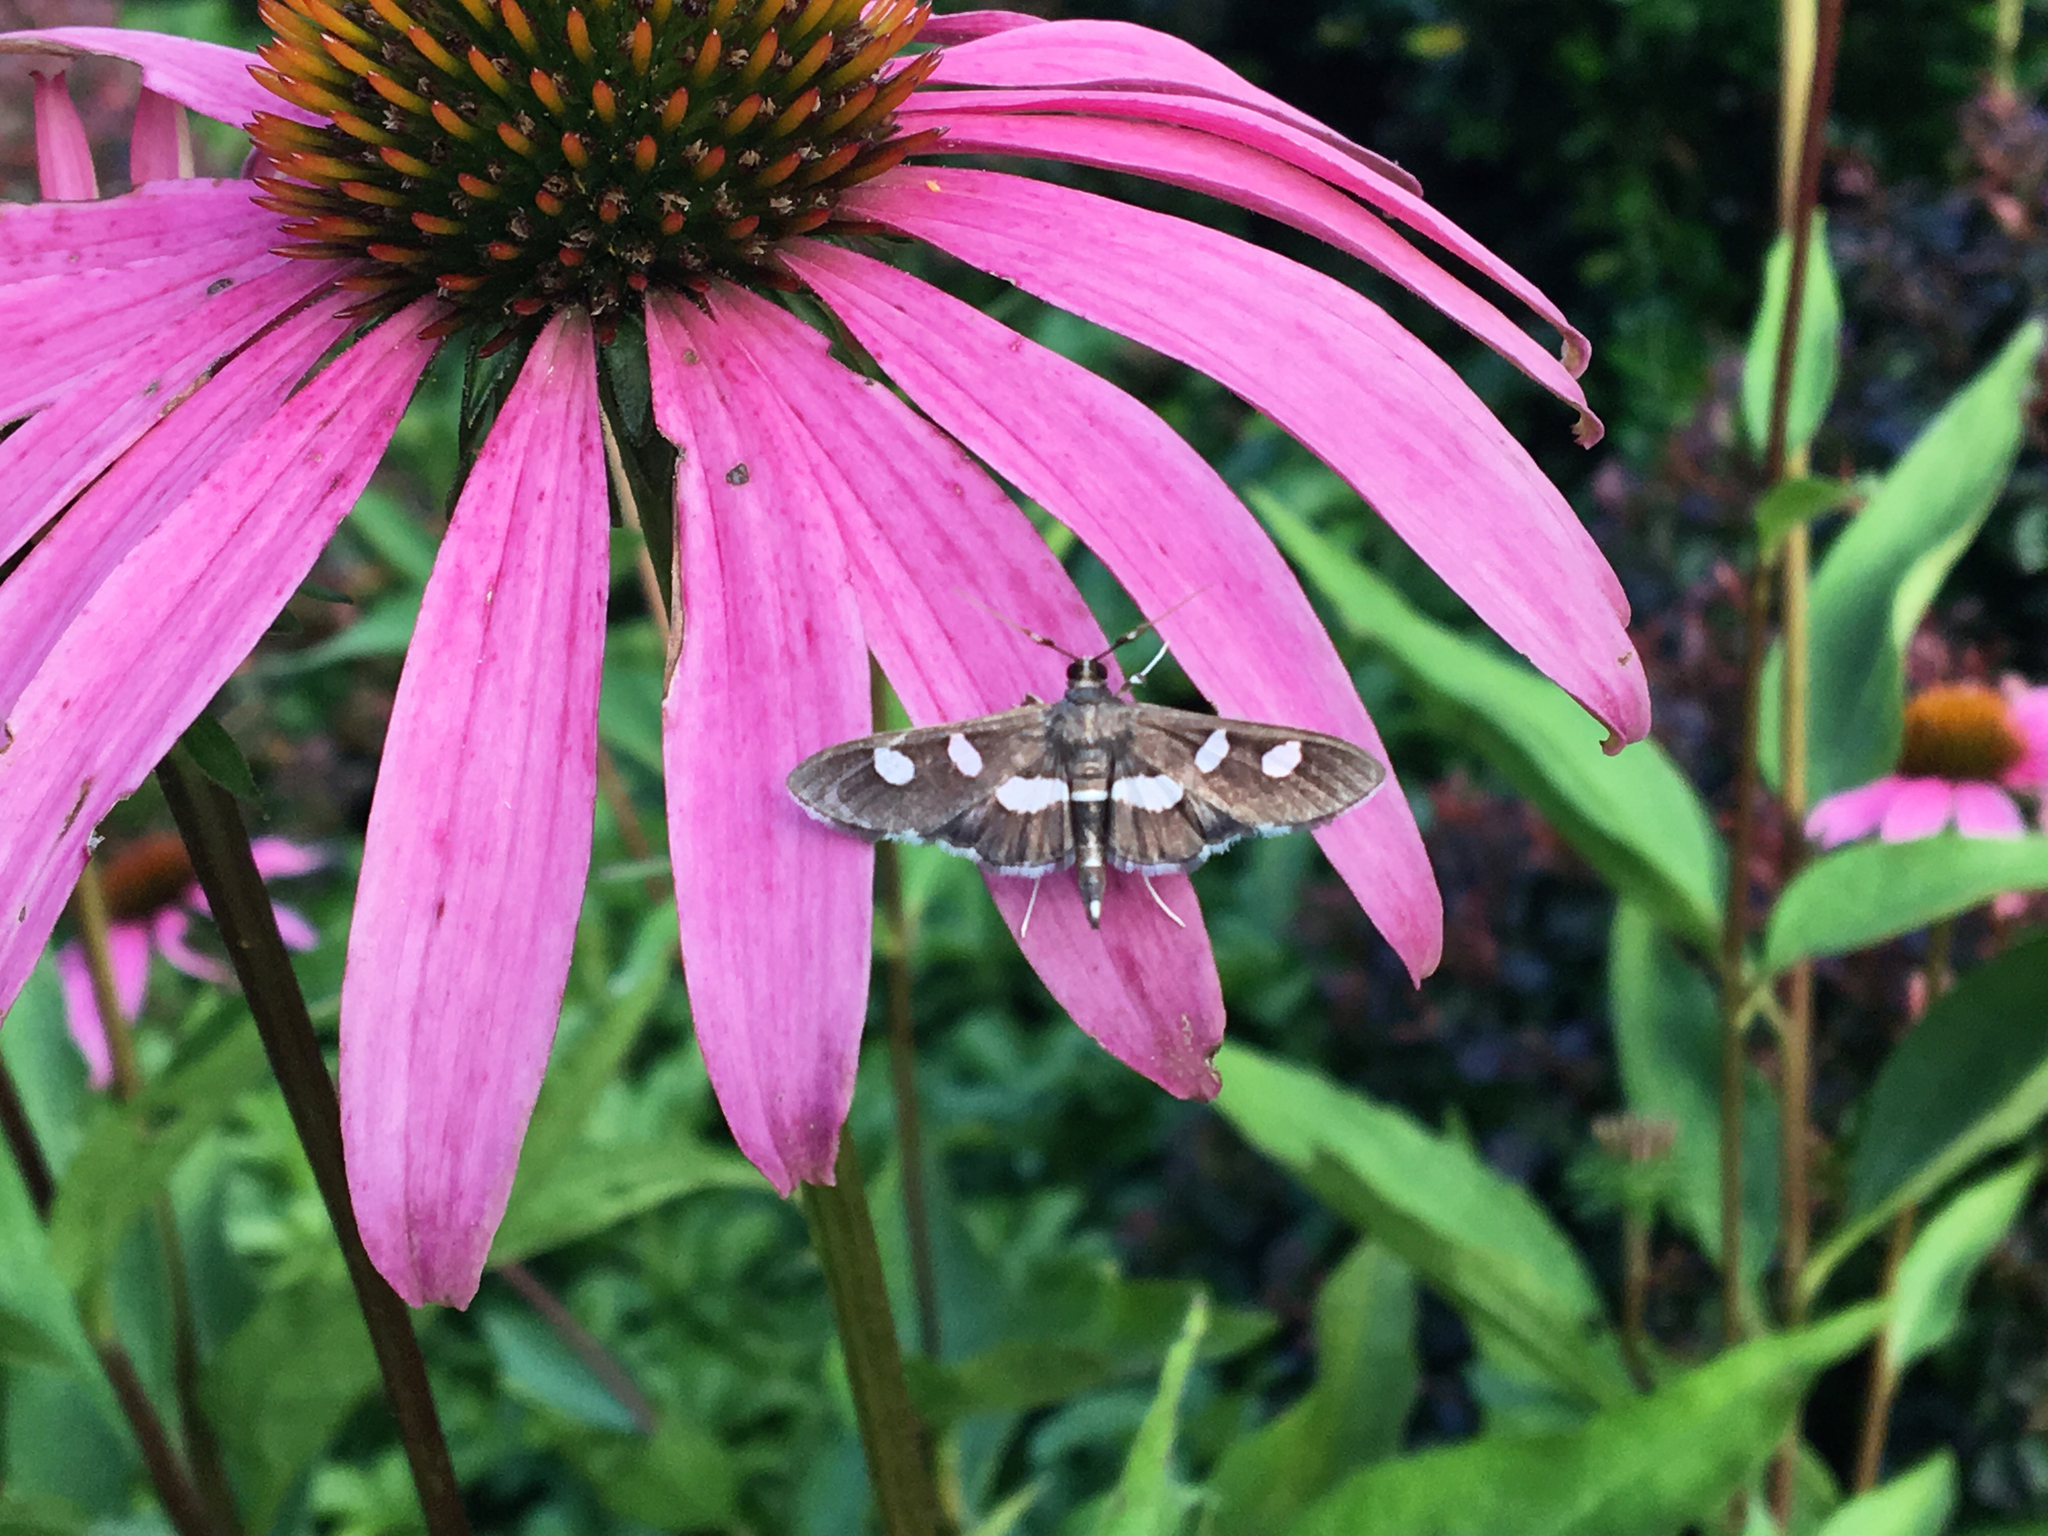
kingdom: Animalia
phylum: Arthropoda
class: Insecta
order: Lepidoptera
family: Crambidae
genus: Desmia
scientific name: Desmia
